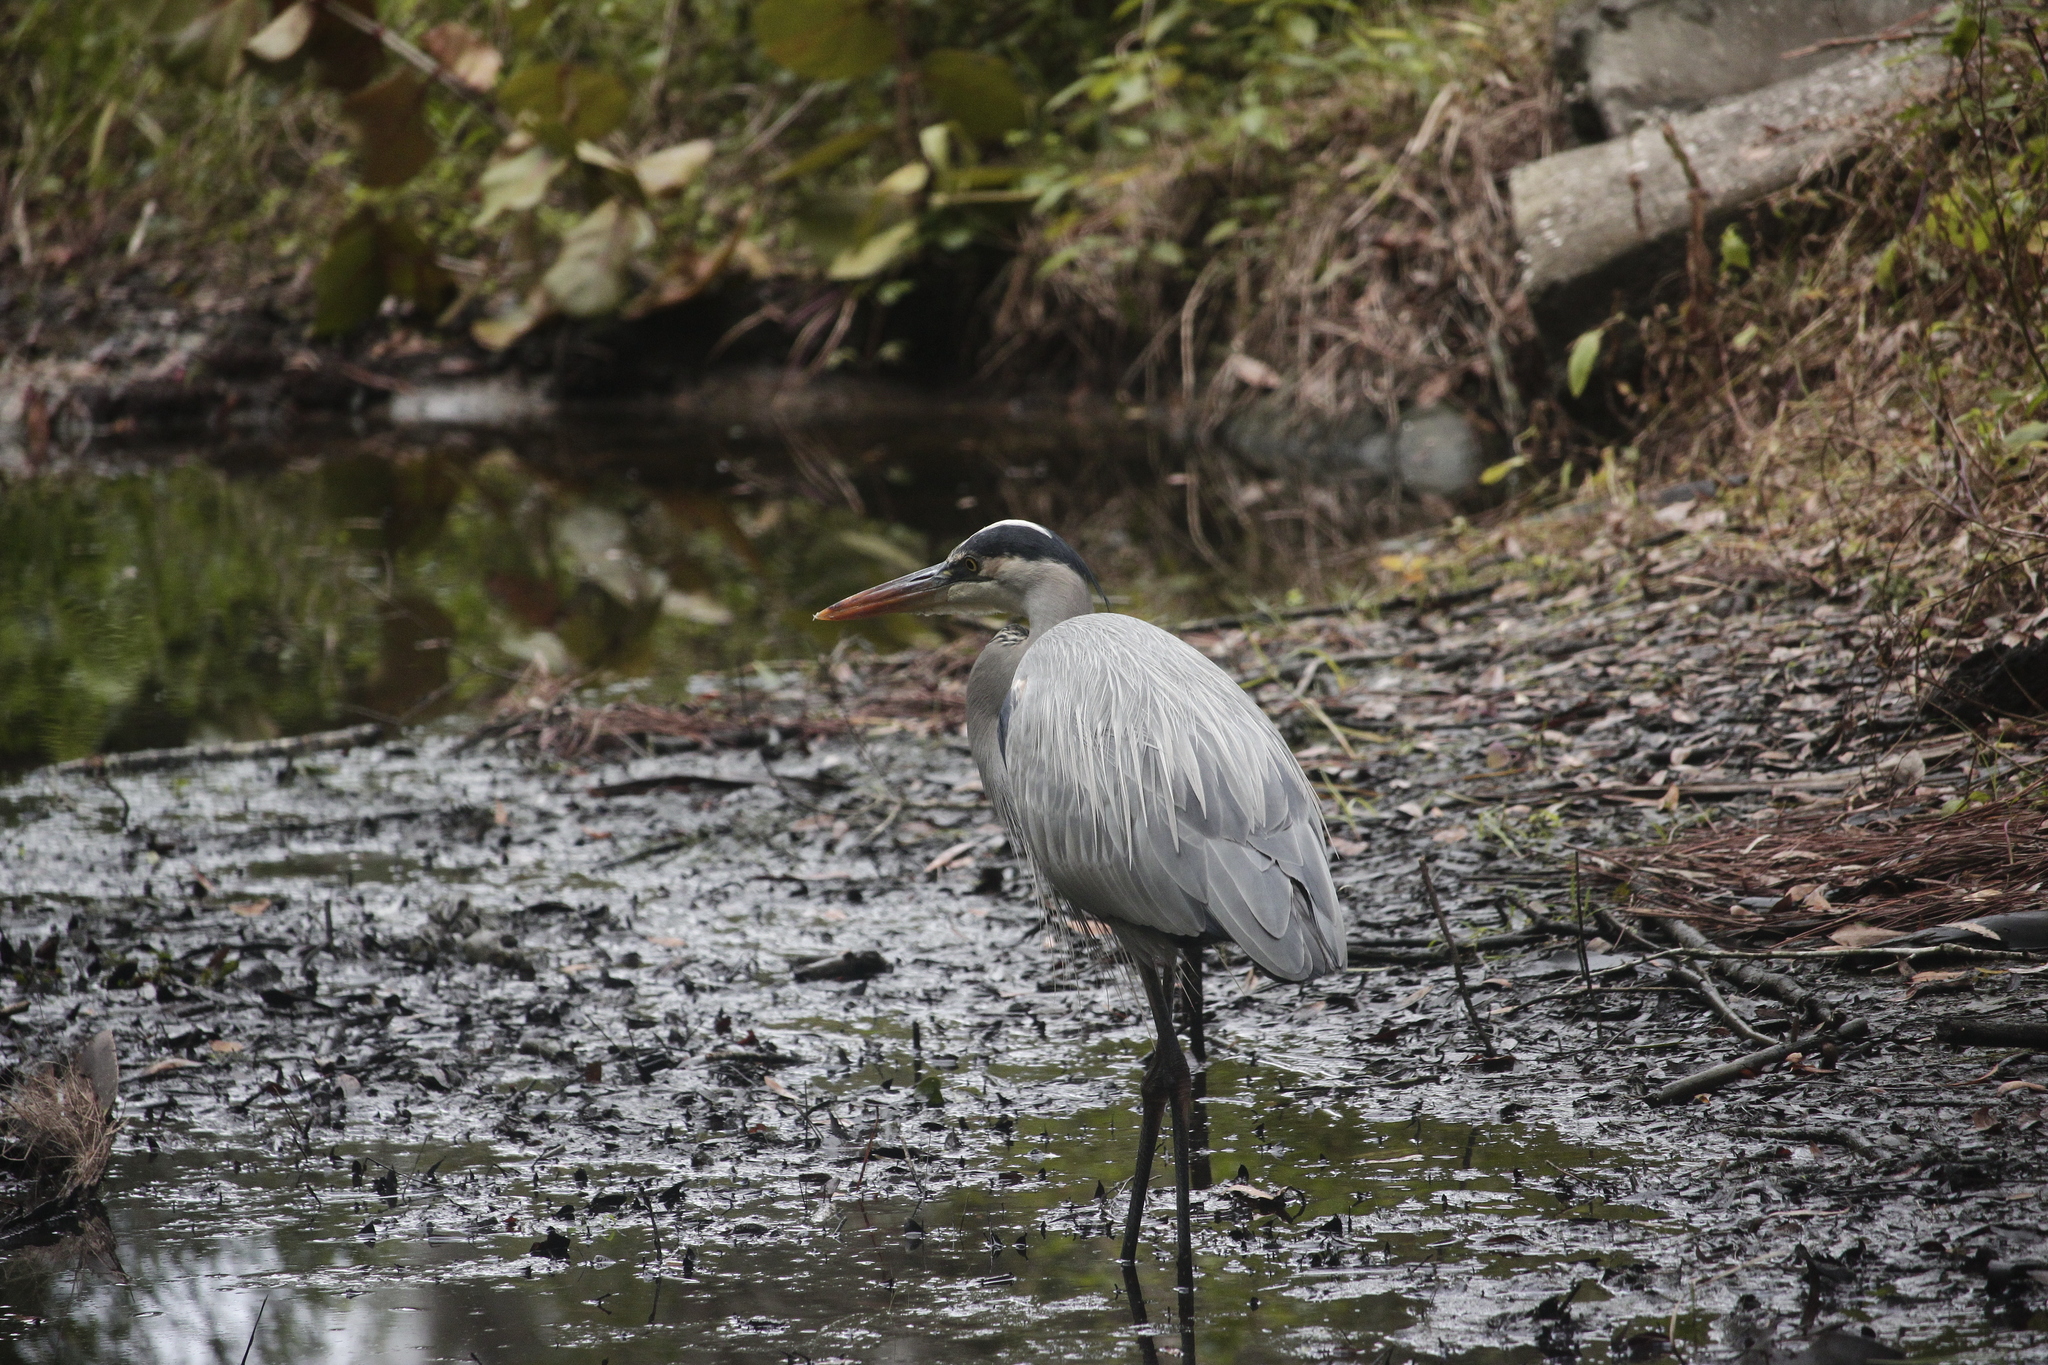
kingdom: Animalia
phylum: Chordata
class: Aves
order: Pelecaniformes
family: Ardeidae
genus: Ardea
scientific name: Ardea herodias
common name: Great blue heron
